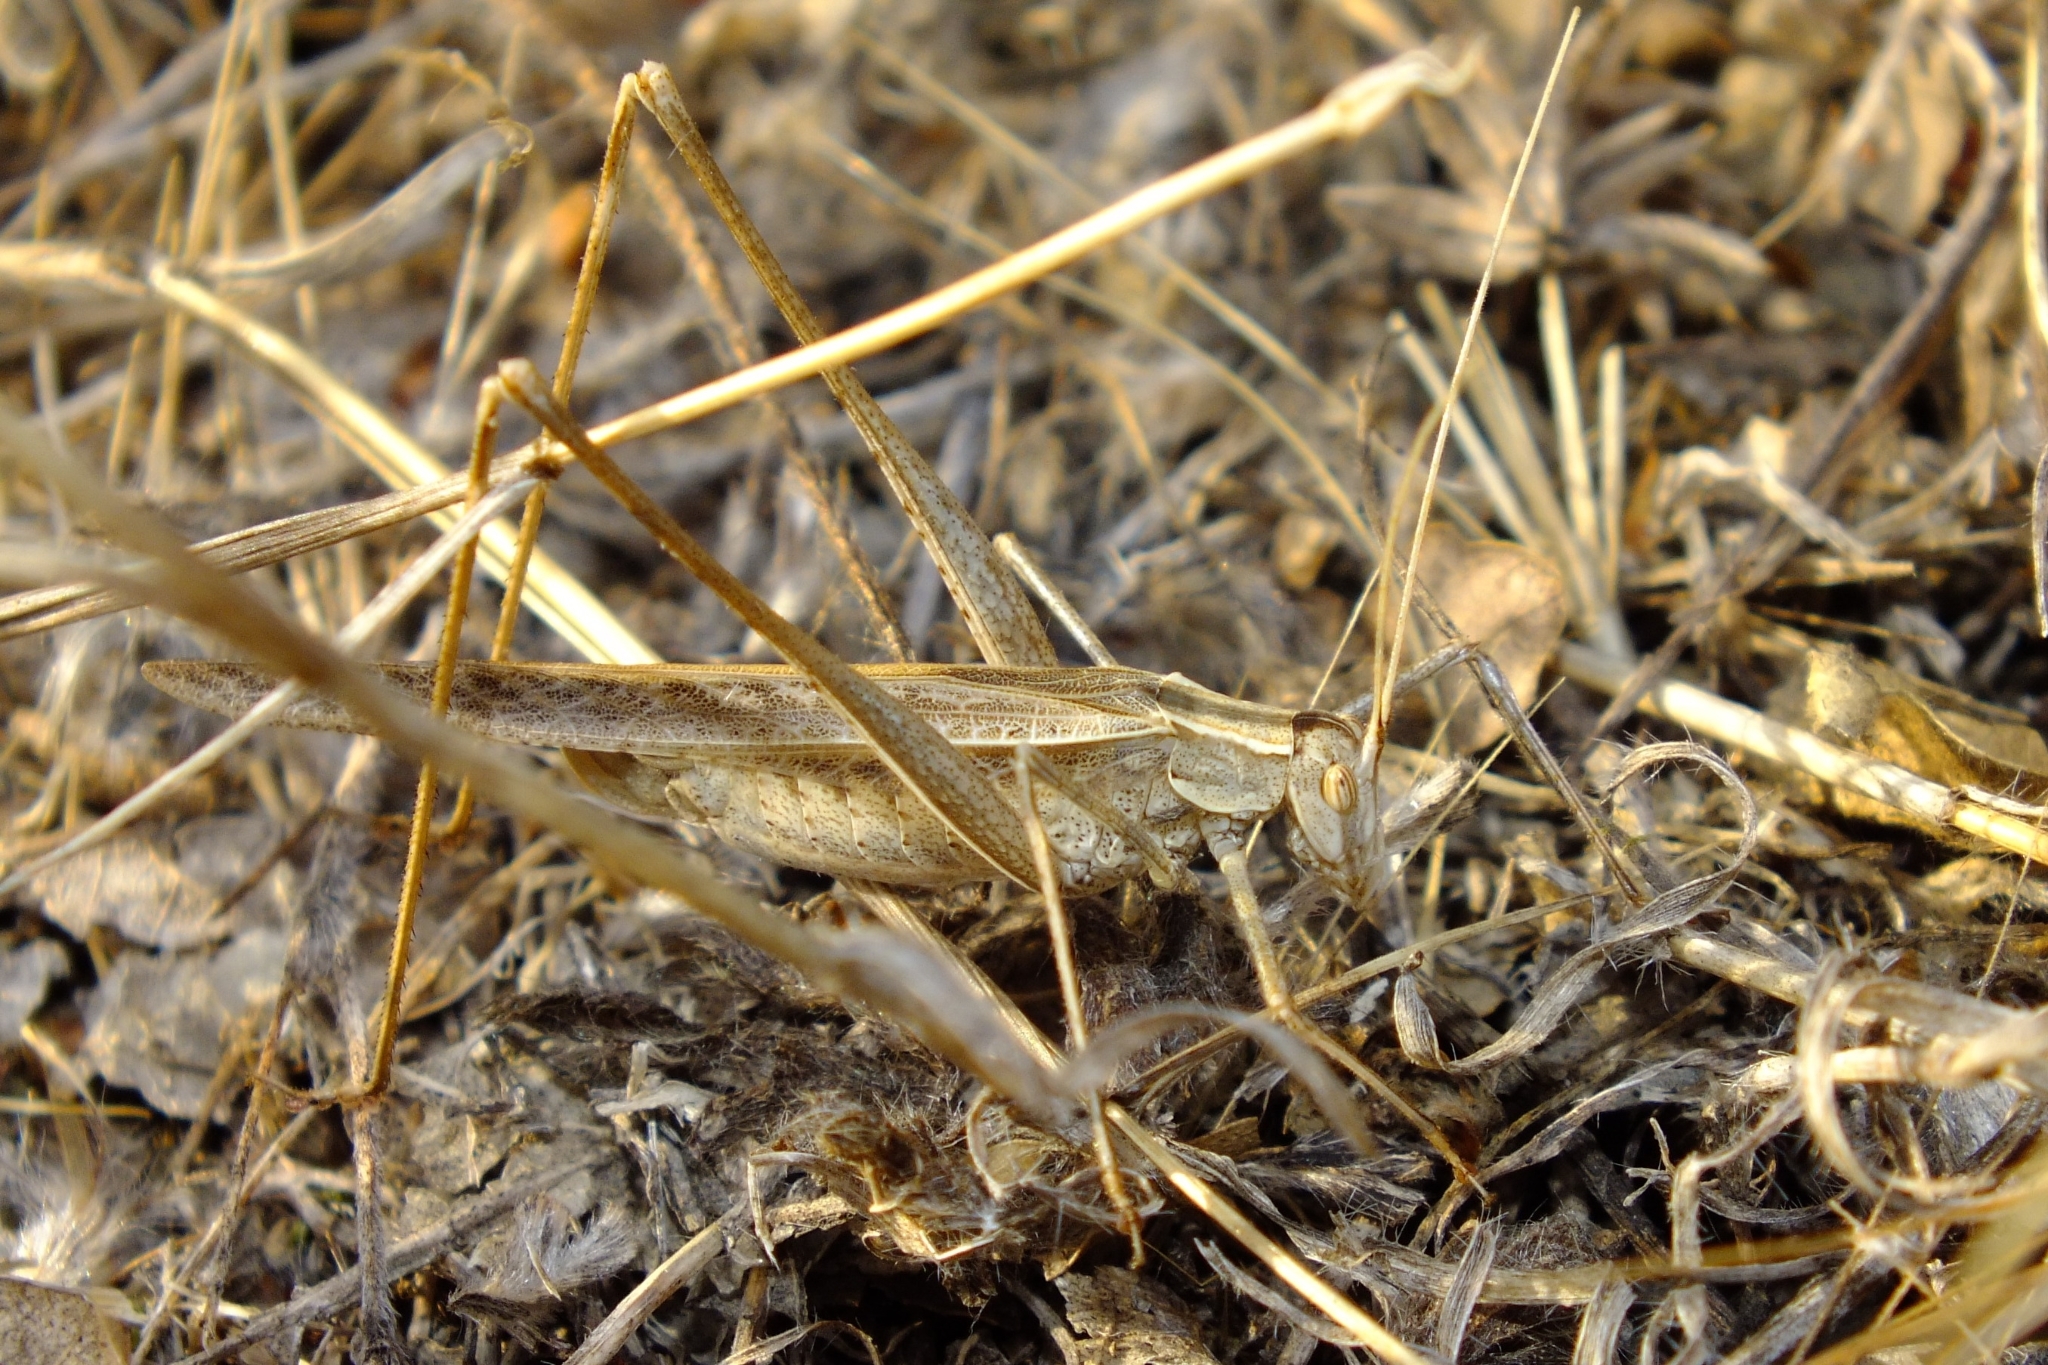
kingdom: Animalia
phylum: Arthropoda
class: Insecta
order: Orthoptera
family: Tettigoniidae
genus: Tylopsis
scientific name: Tylopsis lilifolia
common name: Lily bush-cricket
